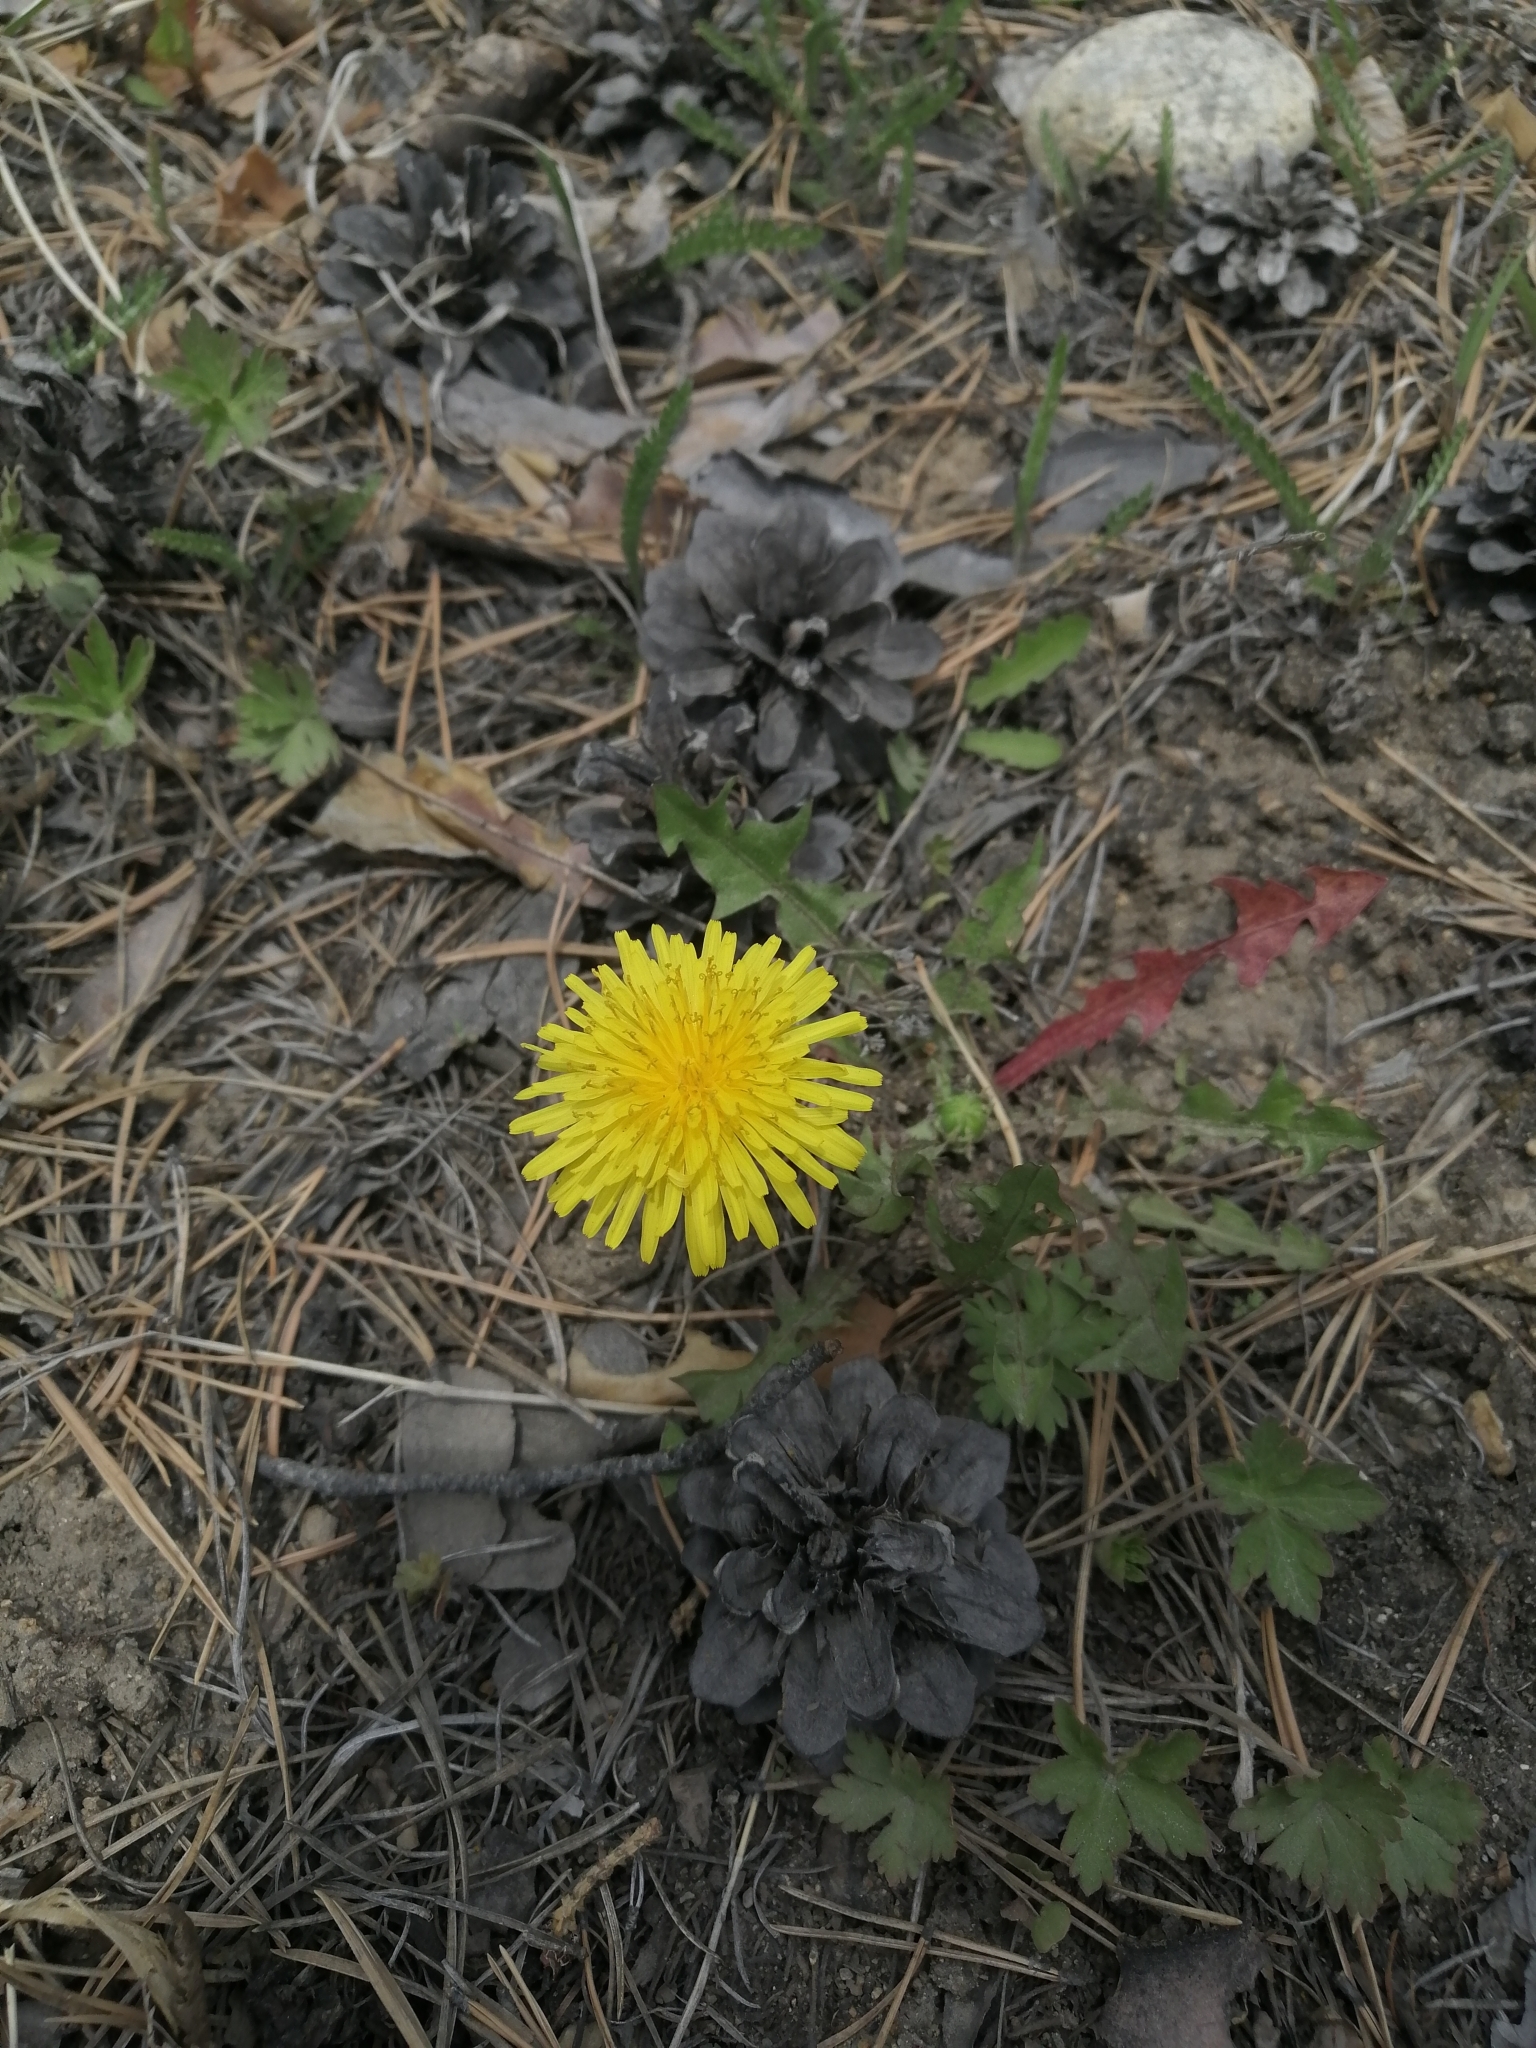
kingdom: Plantae
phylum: Tracheophyta
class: Magnoliopsida
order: Asterales
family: Asteraceae
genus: Taraxacum
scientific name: Taraxacum officinale
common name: Common dandelion
